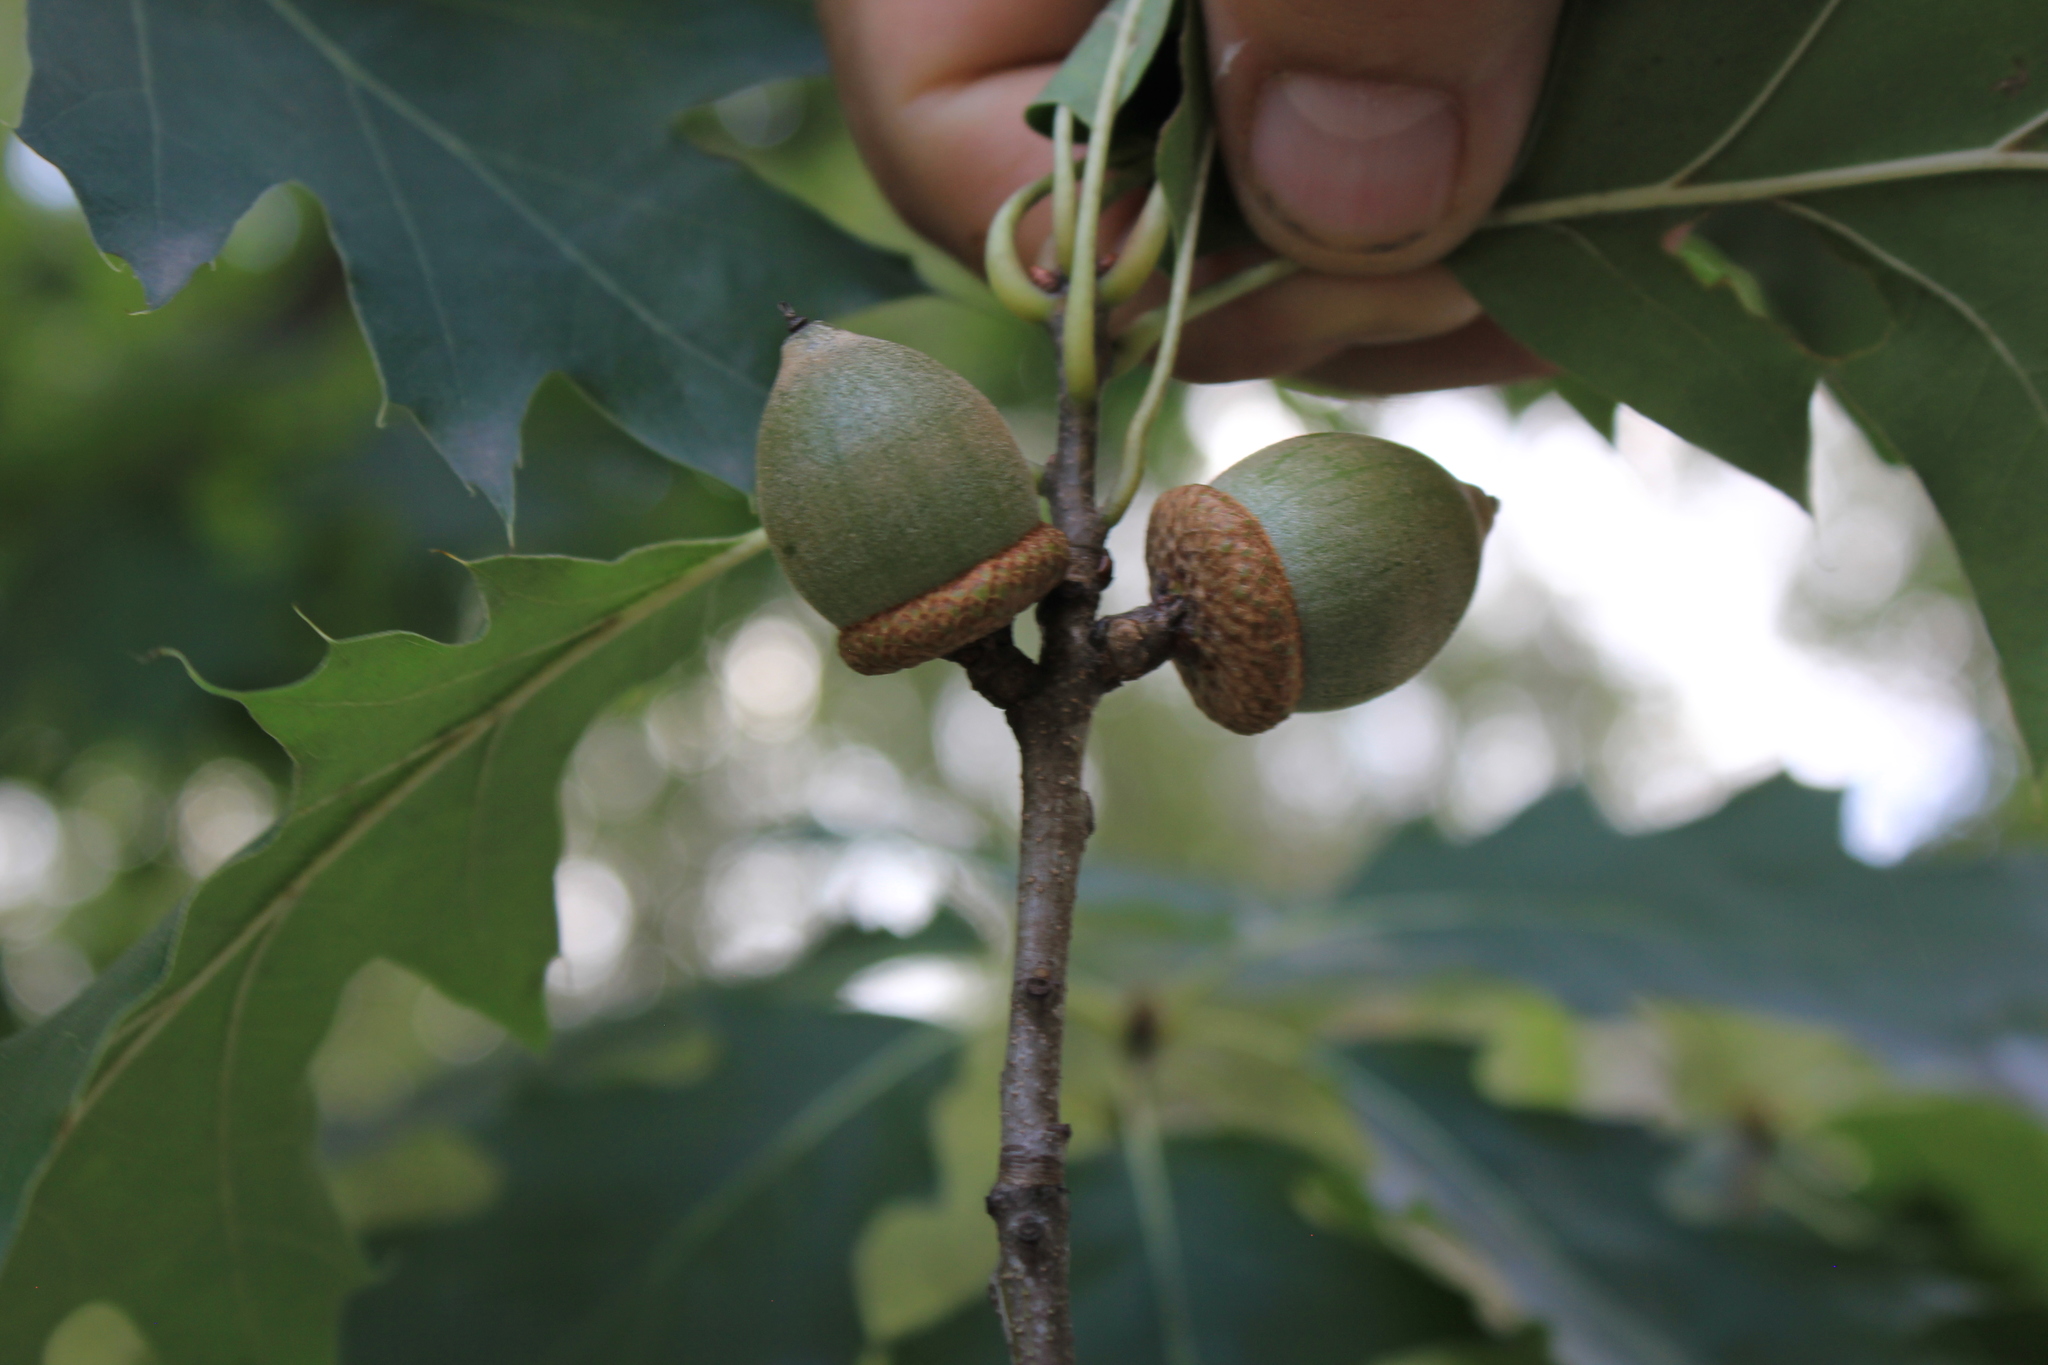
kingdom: Plantae
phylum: Tracheophyta
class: Magnoliopsida
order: Fagales
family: Fagaceae
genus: Quercus
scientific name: Quercus rubra
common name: Red oak
